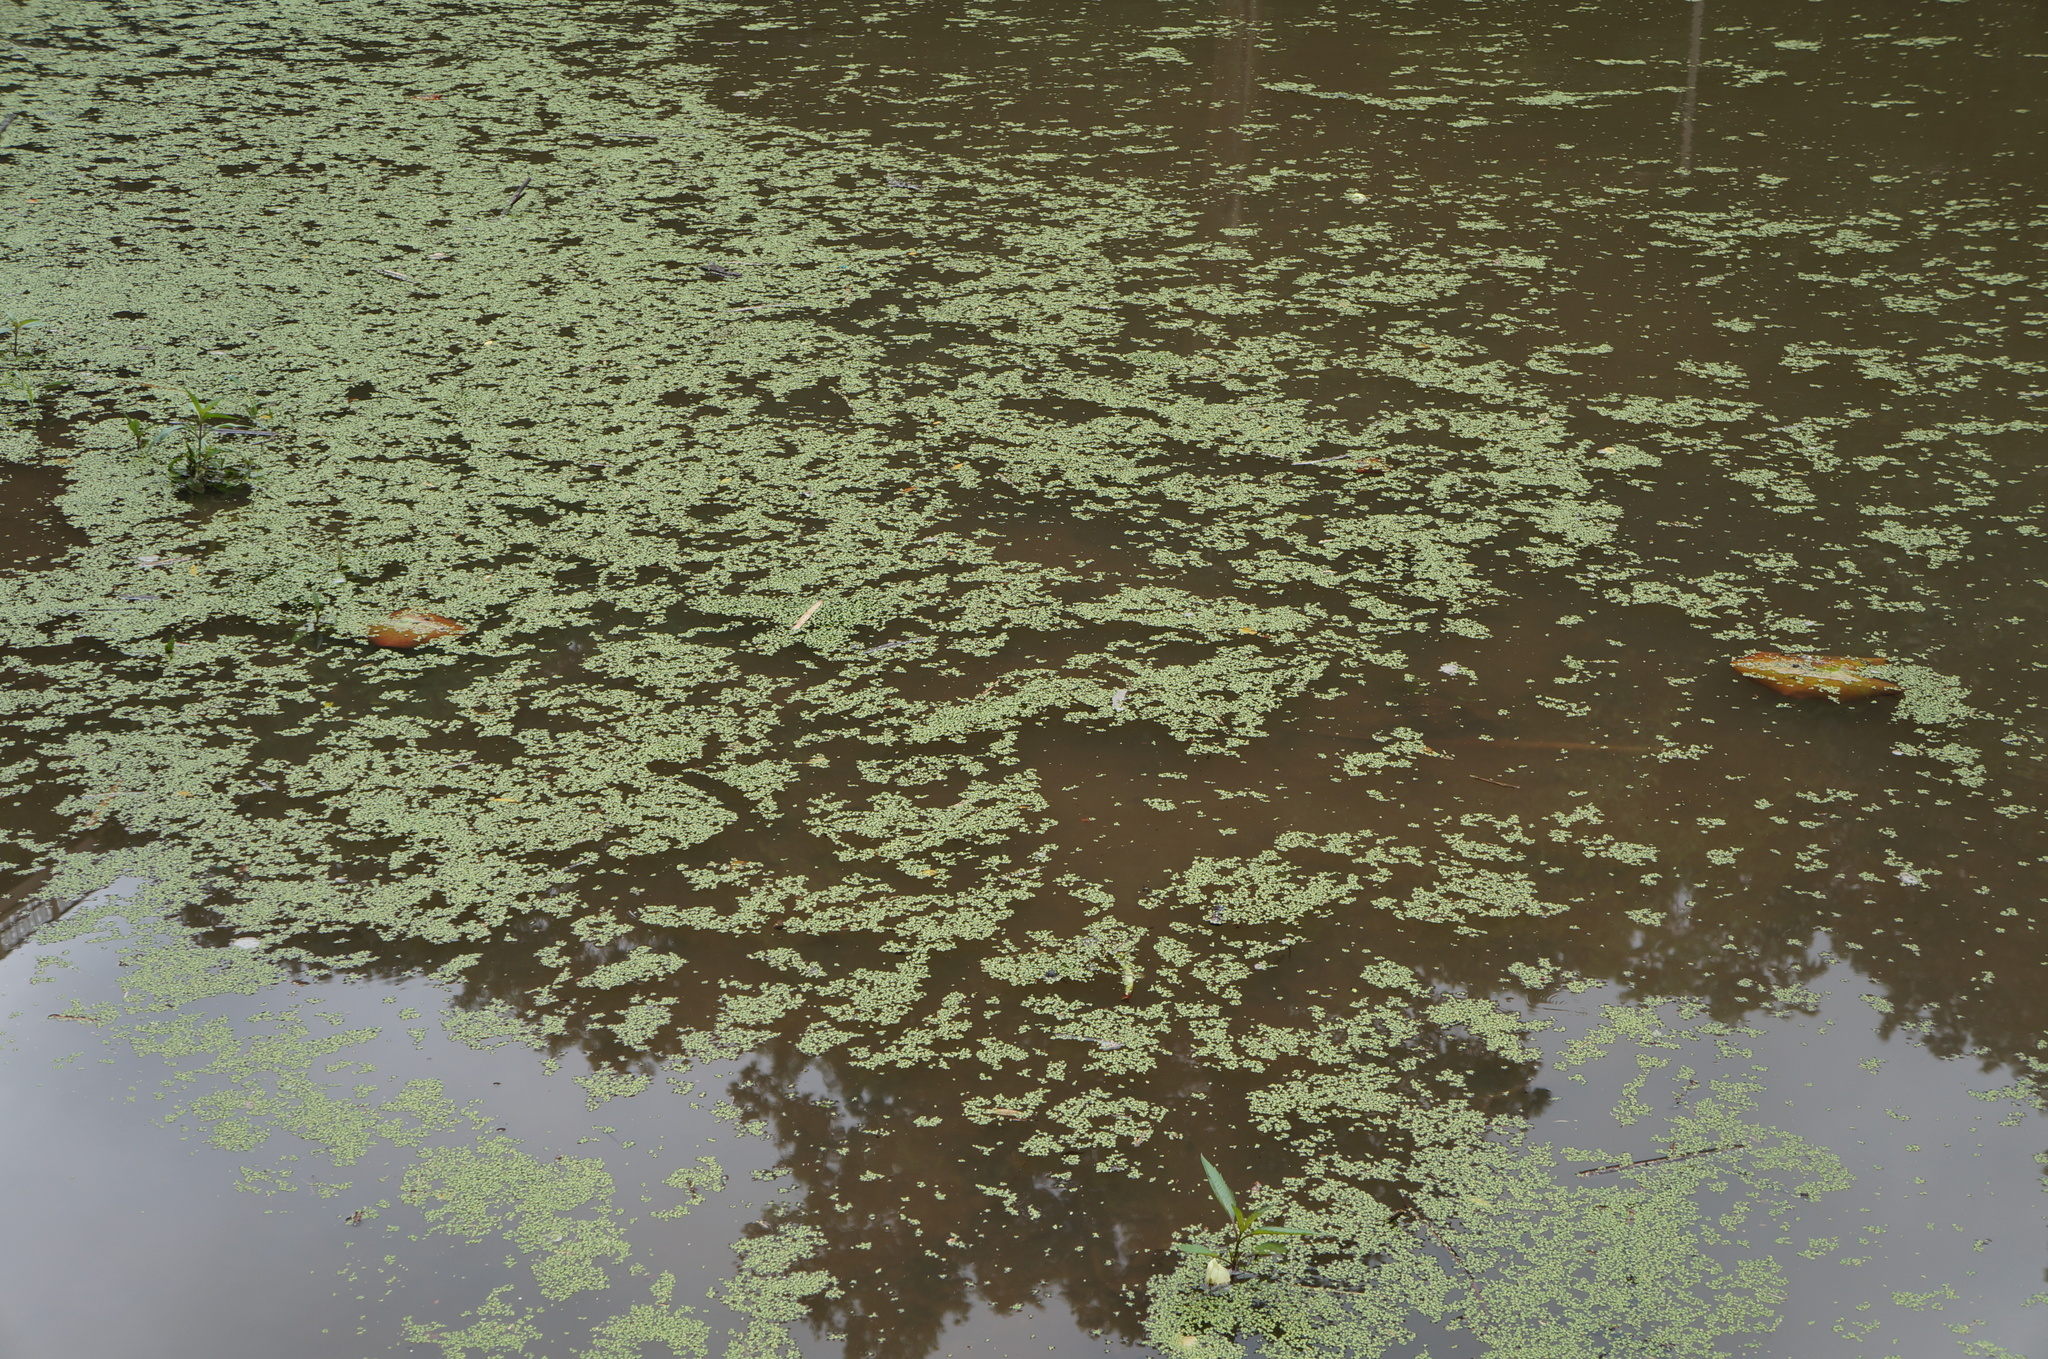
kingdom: Plantae
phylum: Tracheophyta
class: Liliopsida
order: Alismatales
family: Araceae
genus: Lemna
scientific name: Lemna minor
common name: Common duckweed
